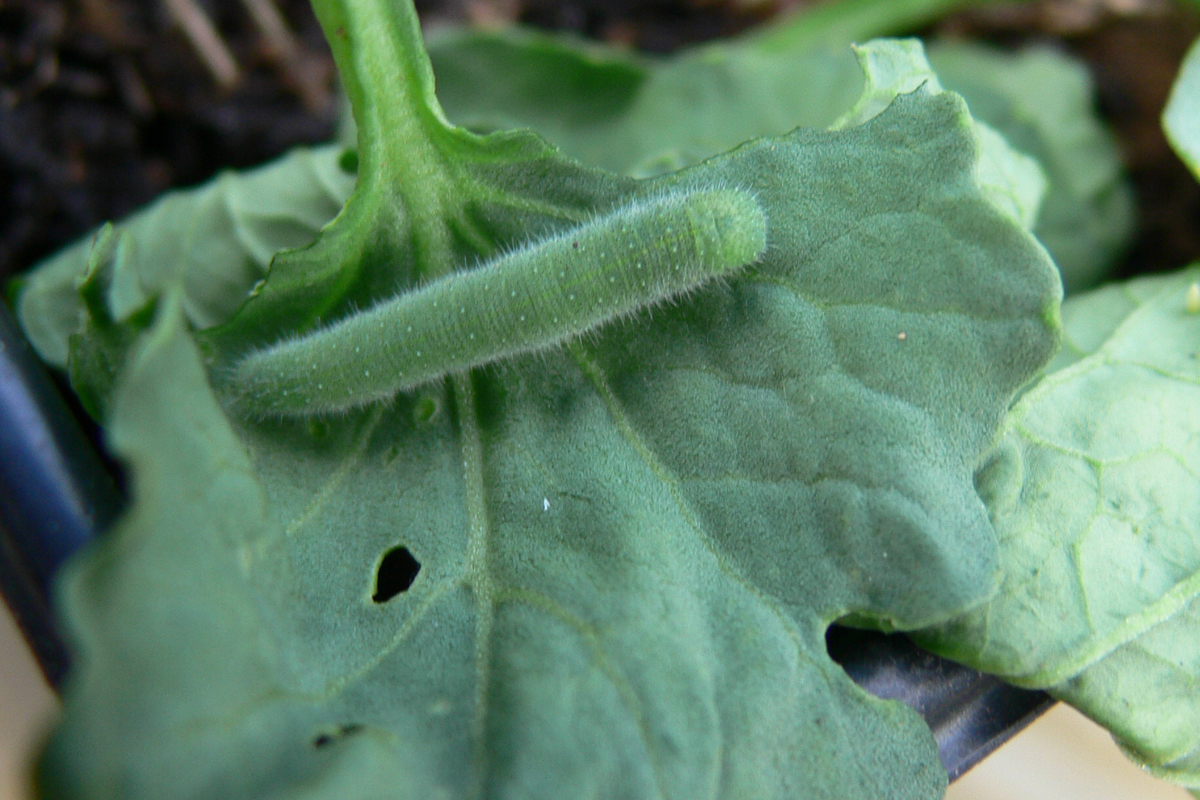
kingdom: Animalia
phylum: Arthropoda
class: Insecta
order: Lepidoptera
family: Pieridae
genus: Pieris
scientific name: Pieris rapae
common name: Small white
